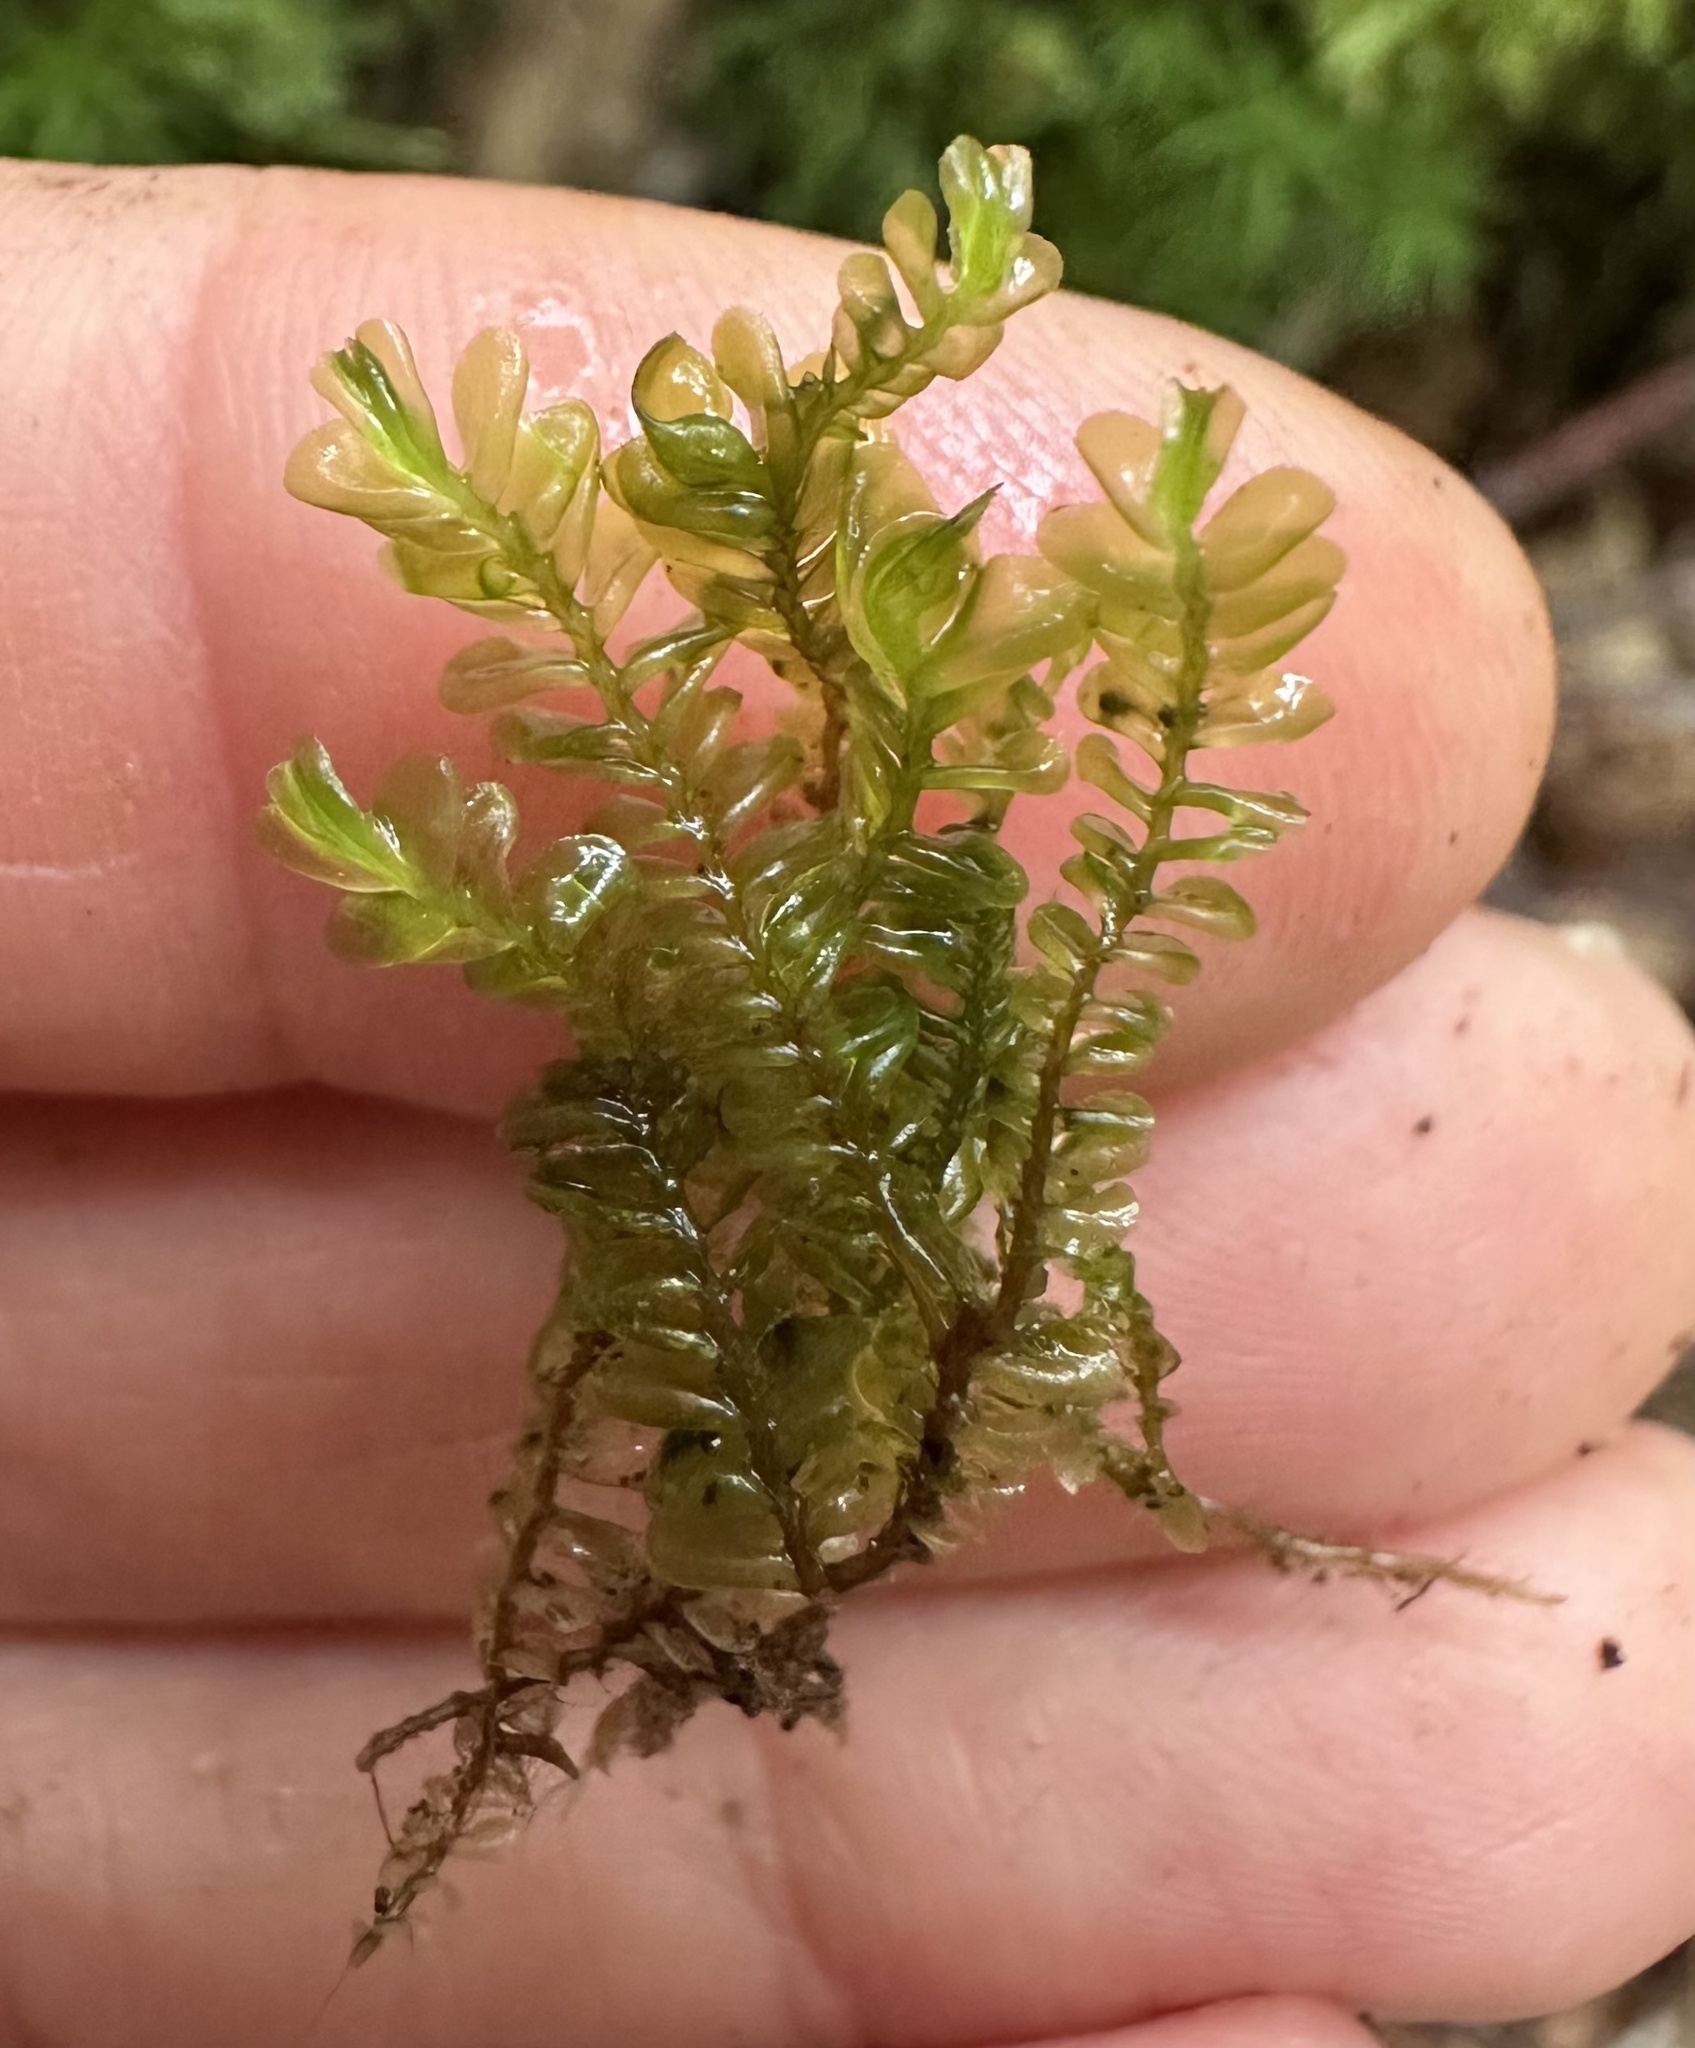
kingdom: Plantae
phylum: Marchantiophyta
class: Jungermanniopsida
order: Jungermanniales
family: Plagiochilaceae
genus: Plagiochila
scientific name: Plagiochila asplenioides
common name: Greater featherwort
